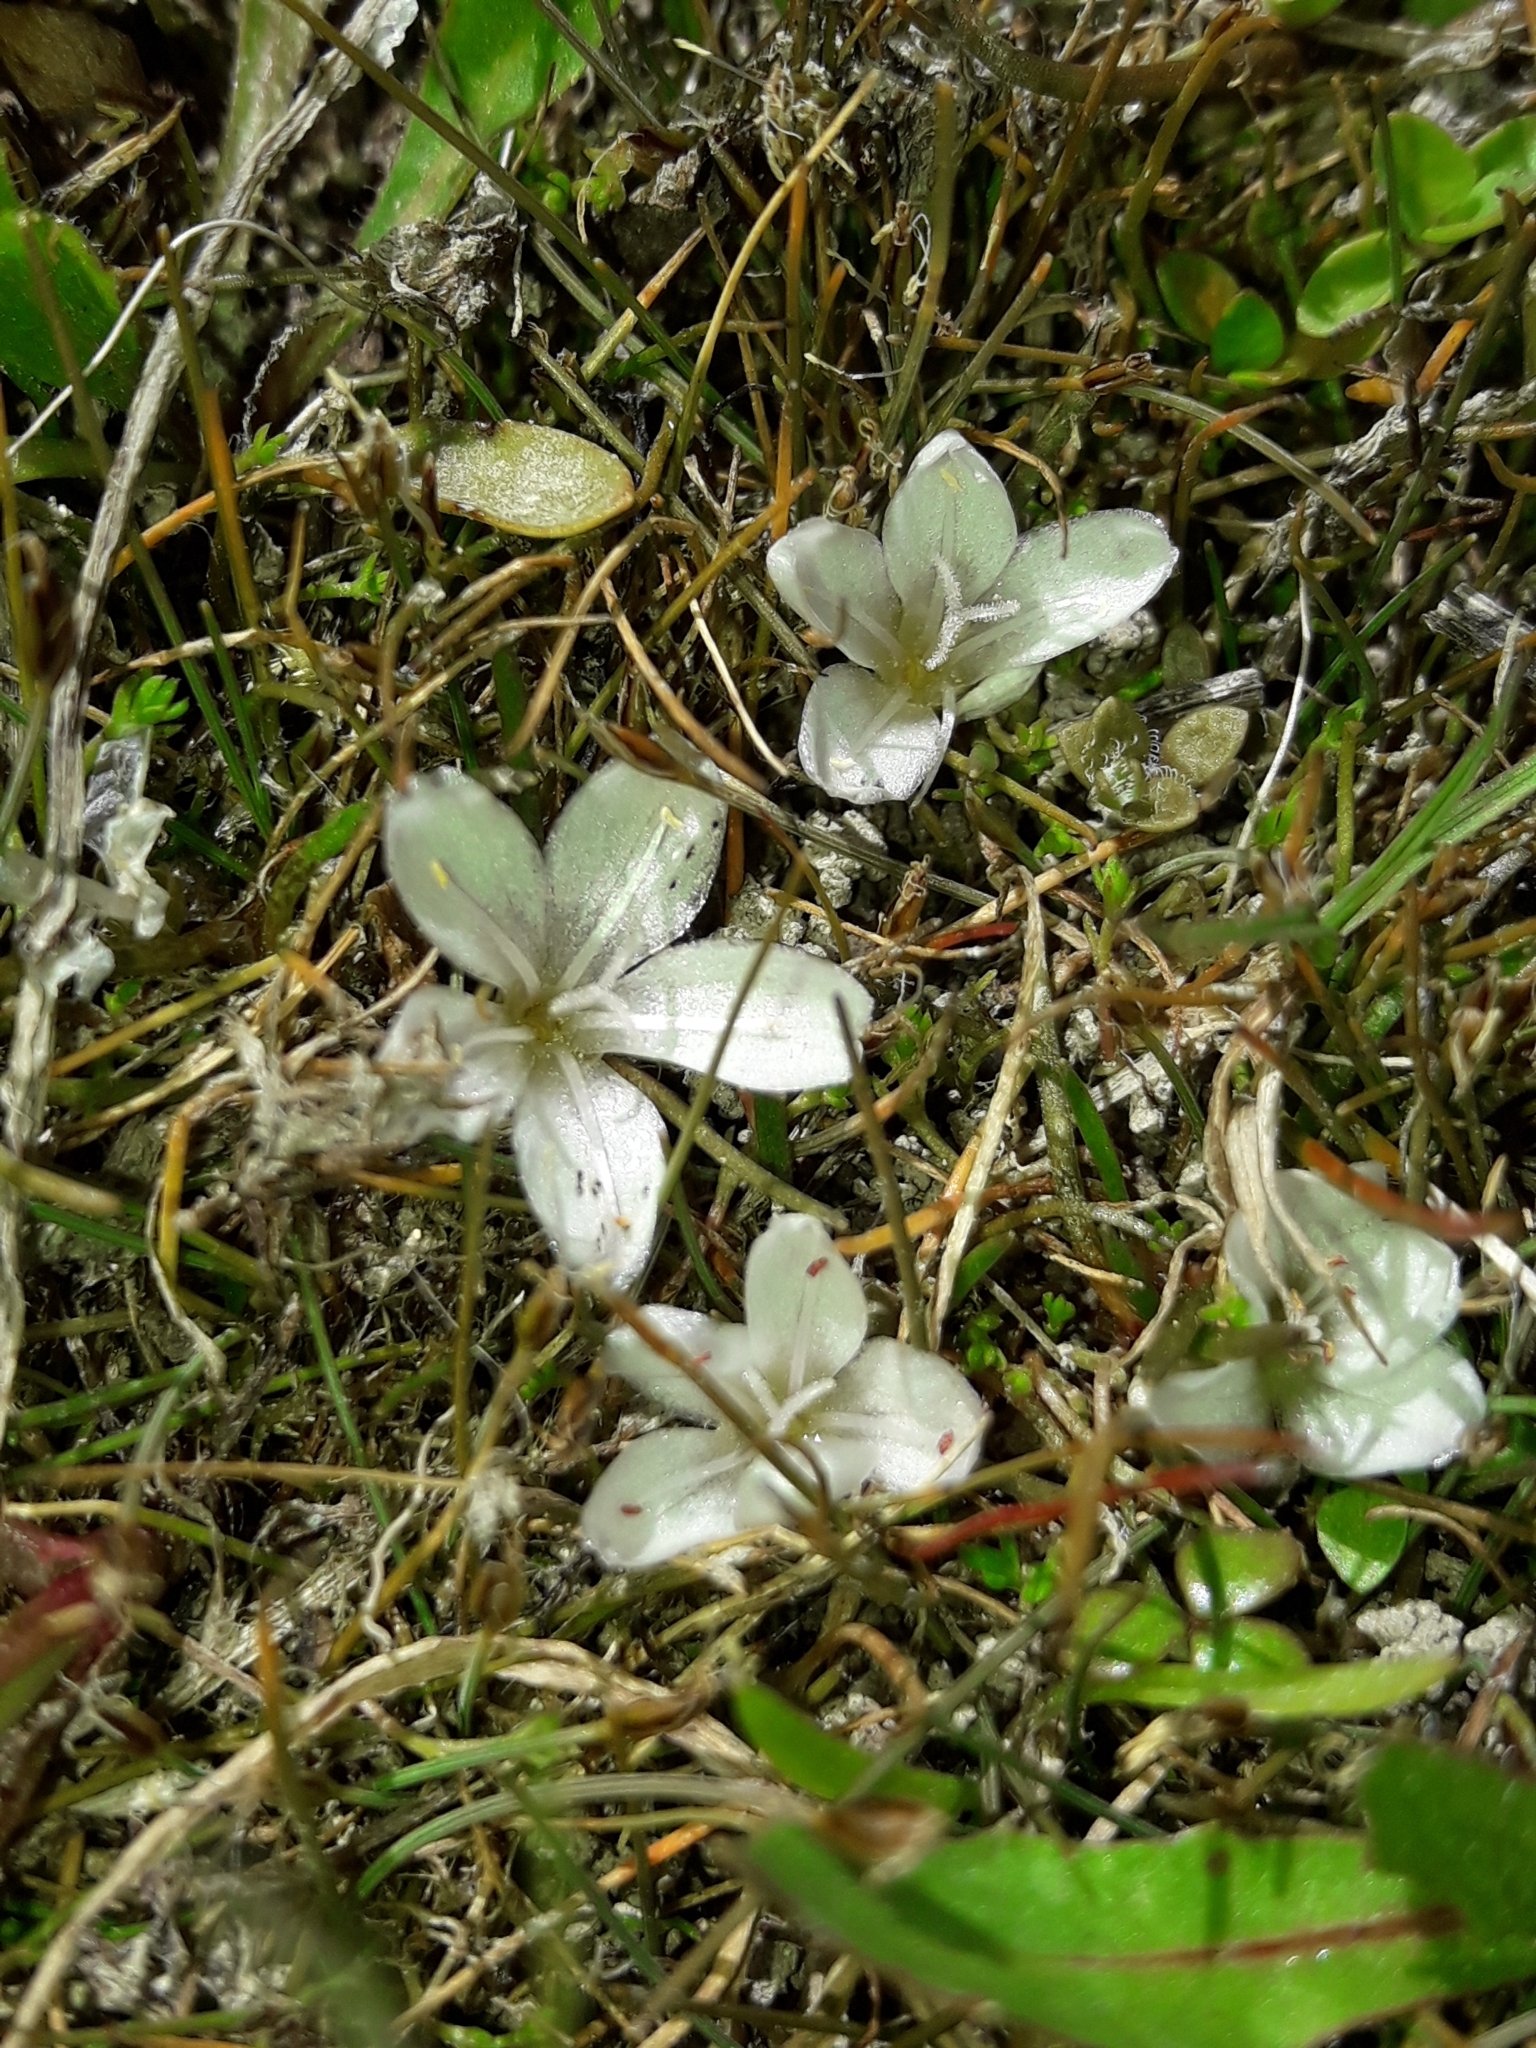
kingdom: Plantae
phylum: Tracheophyta
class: Magnoliopsida
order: Caryophyllales
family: Montiaceae
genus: Montia
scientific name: Montia angustifolia
